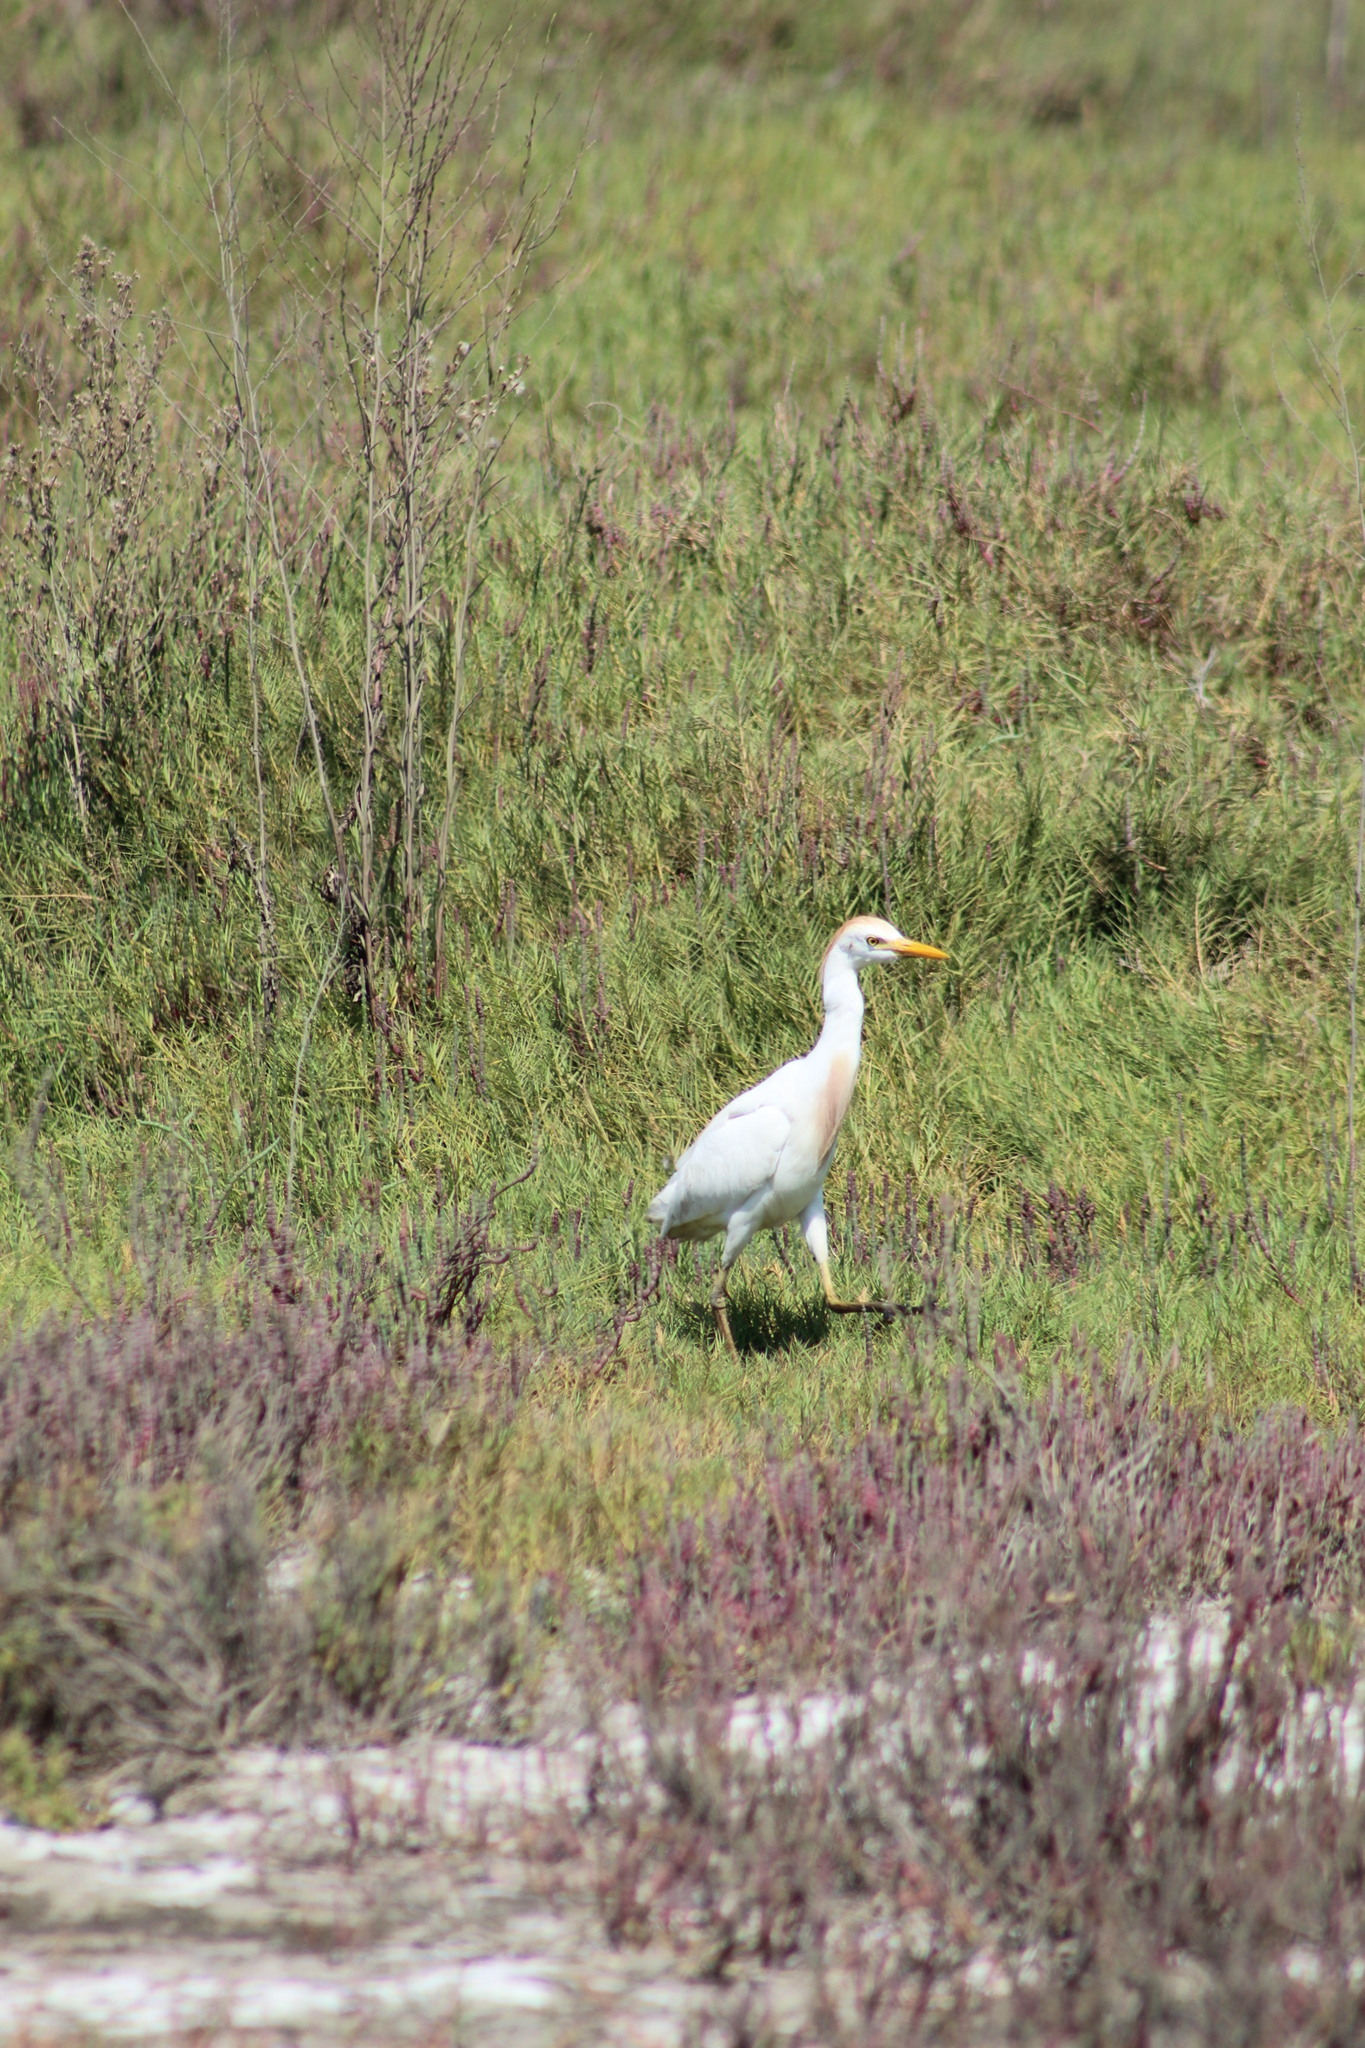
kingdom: Animalia
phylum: Chordata
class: Aves
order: Pelecaniformes
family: Ardeidae
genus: Bubulcus
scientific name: Bubulcus ibis
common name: Cattle egret
